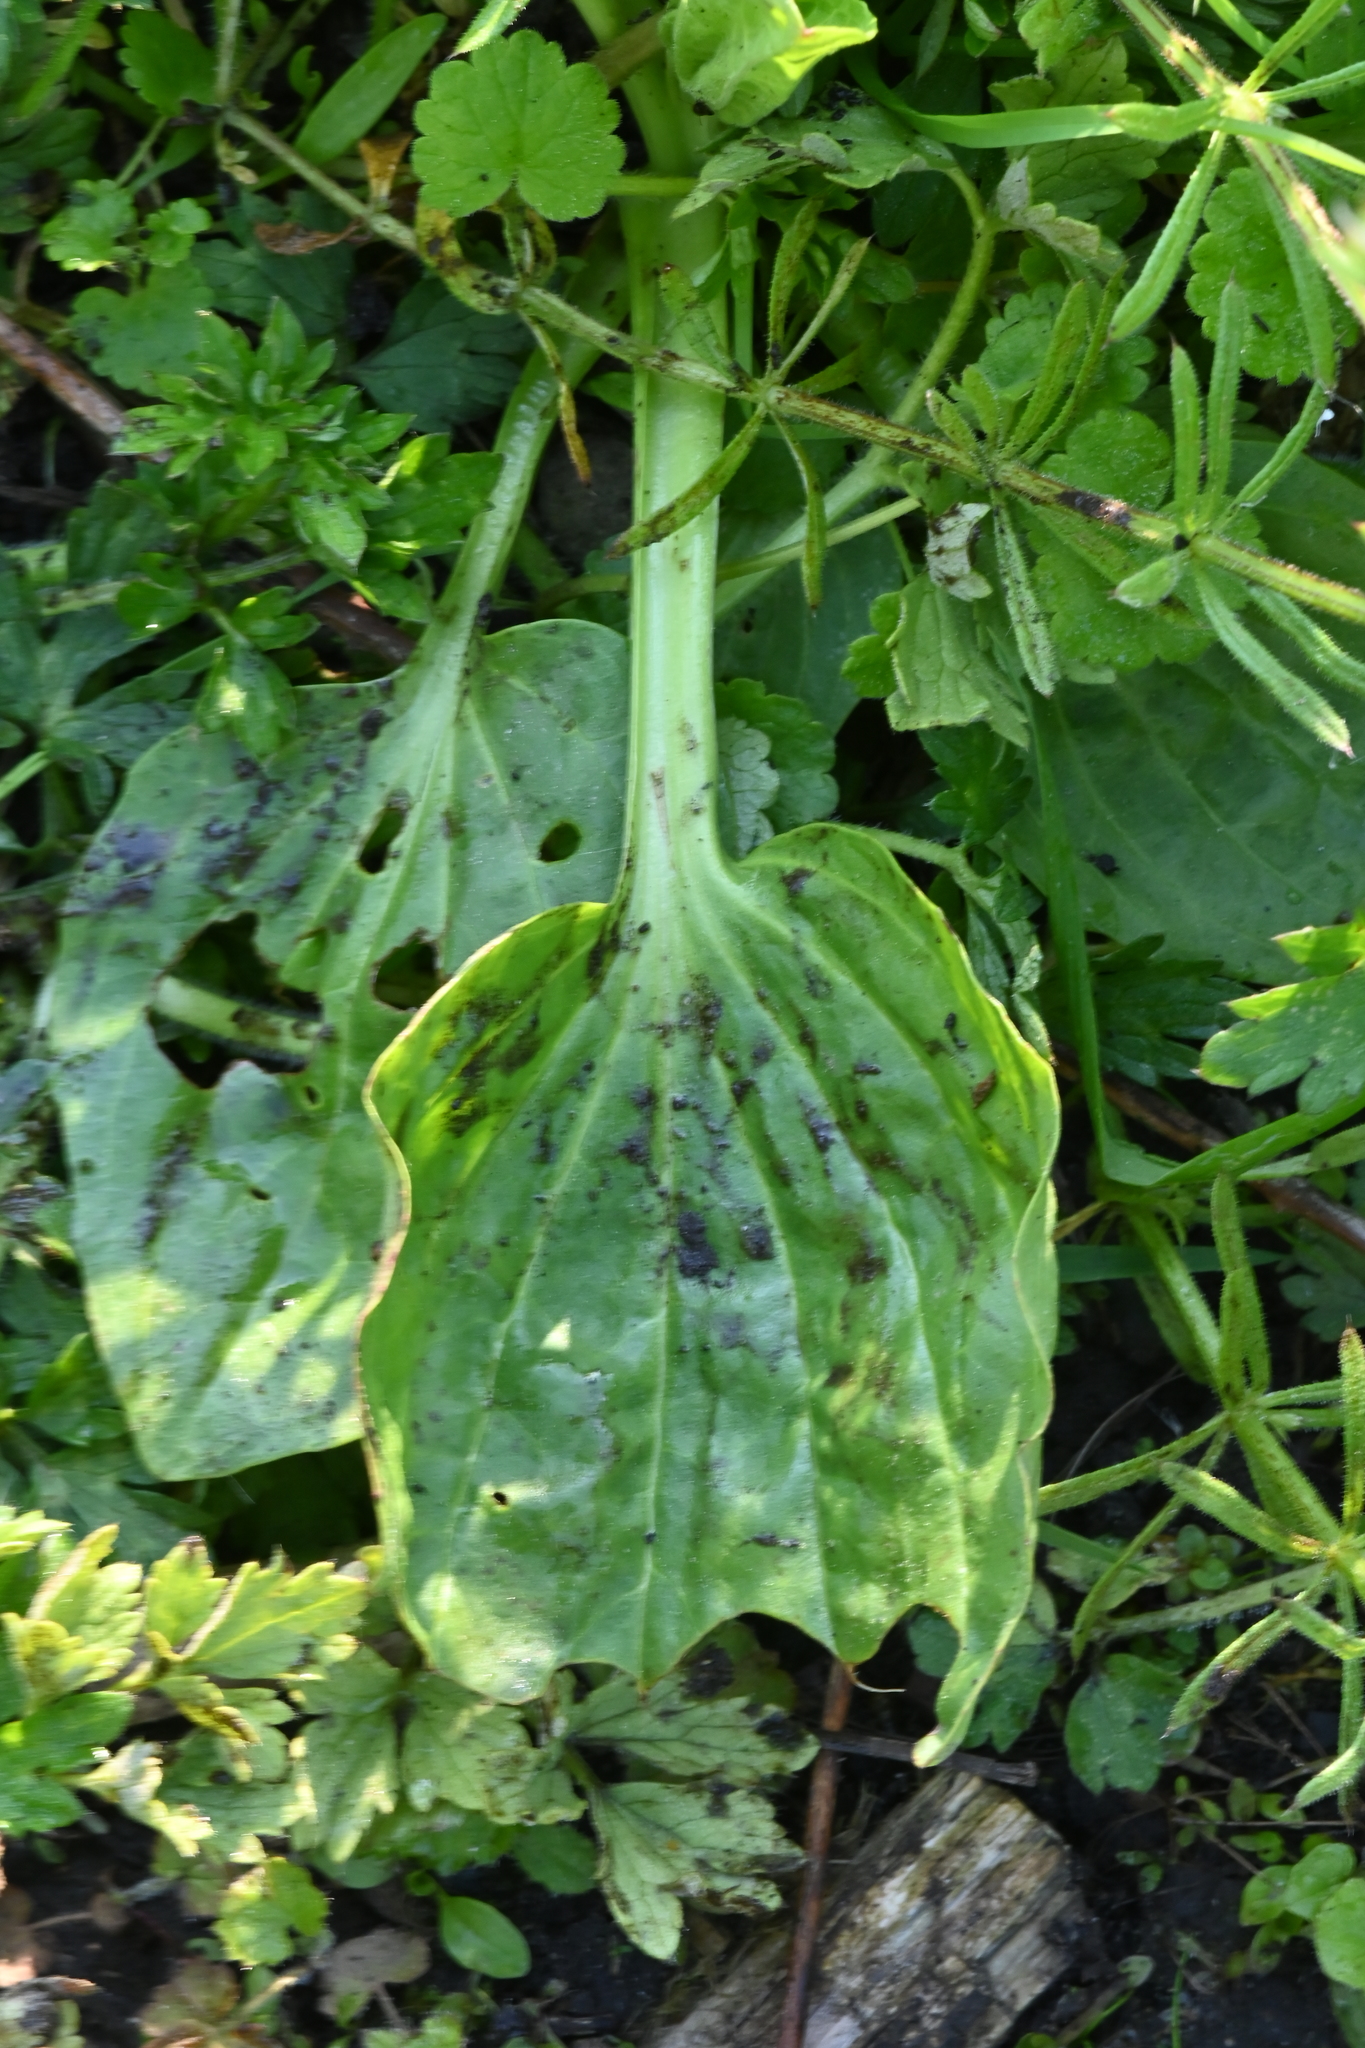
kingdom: Plantae
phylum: Tracheophyta
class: Magnoliopsida
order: Lamiales
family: Plantaginaceae
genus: Plantago
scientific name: Plantago major
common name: Common plantain
